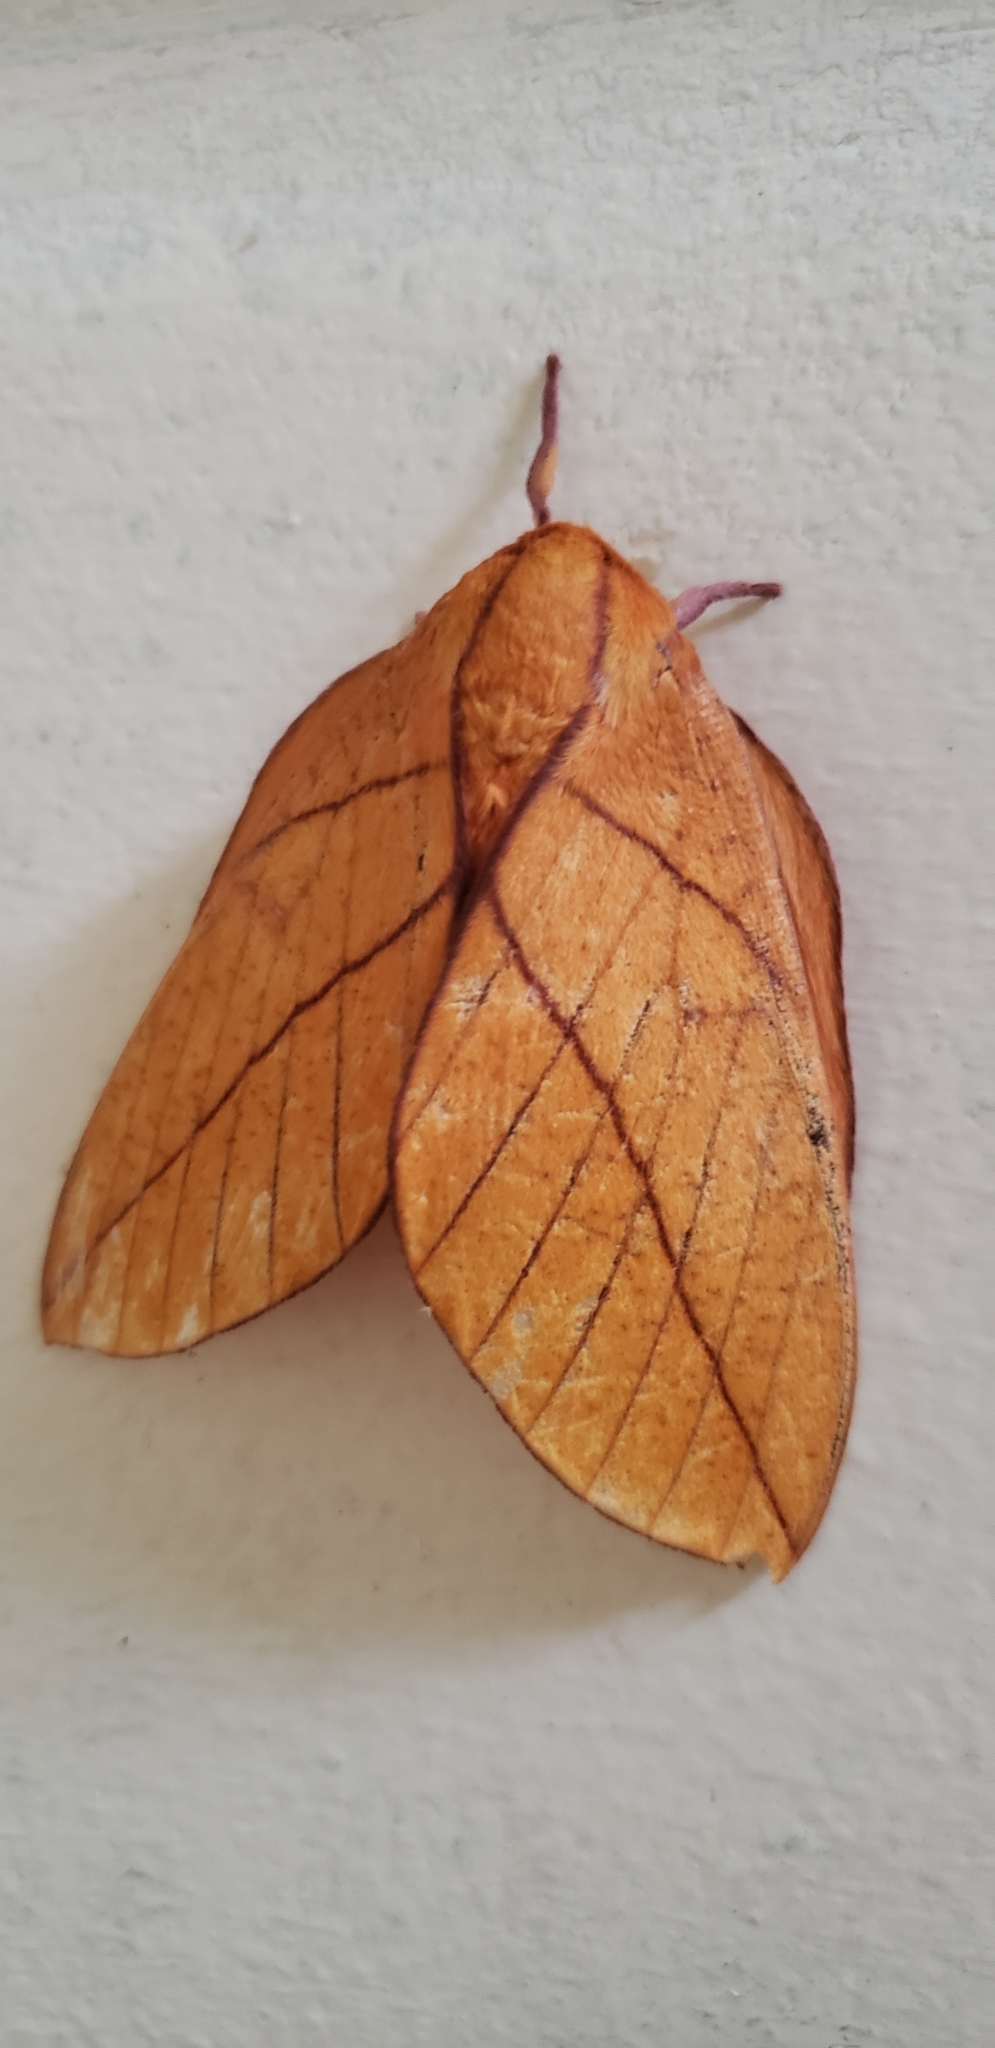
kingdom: Animalia
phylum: Arthropoda
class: Insecta
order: Lepidoptera
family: Saturniidae
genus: Adeloneivaia
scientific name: Adeloneivaia jason
